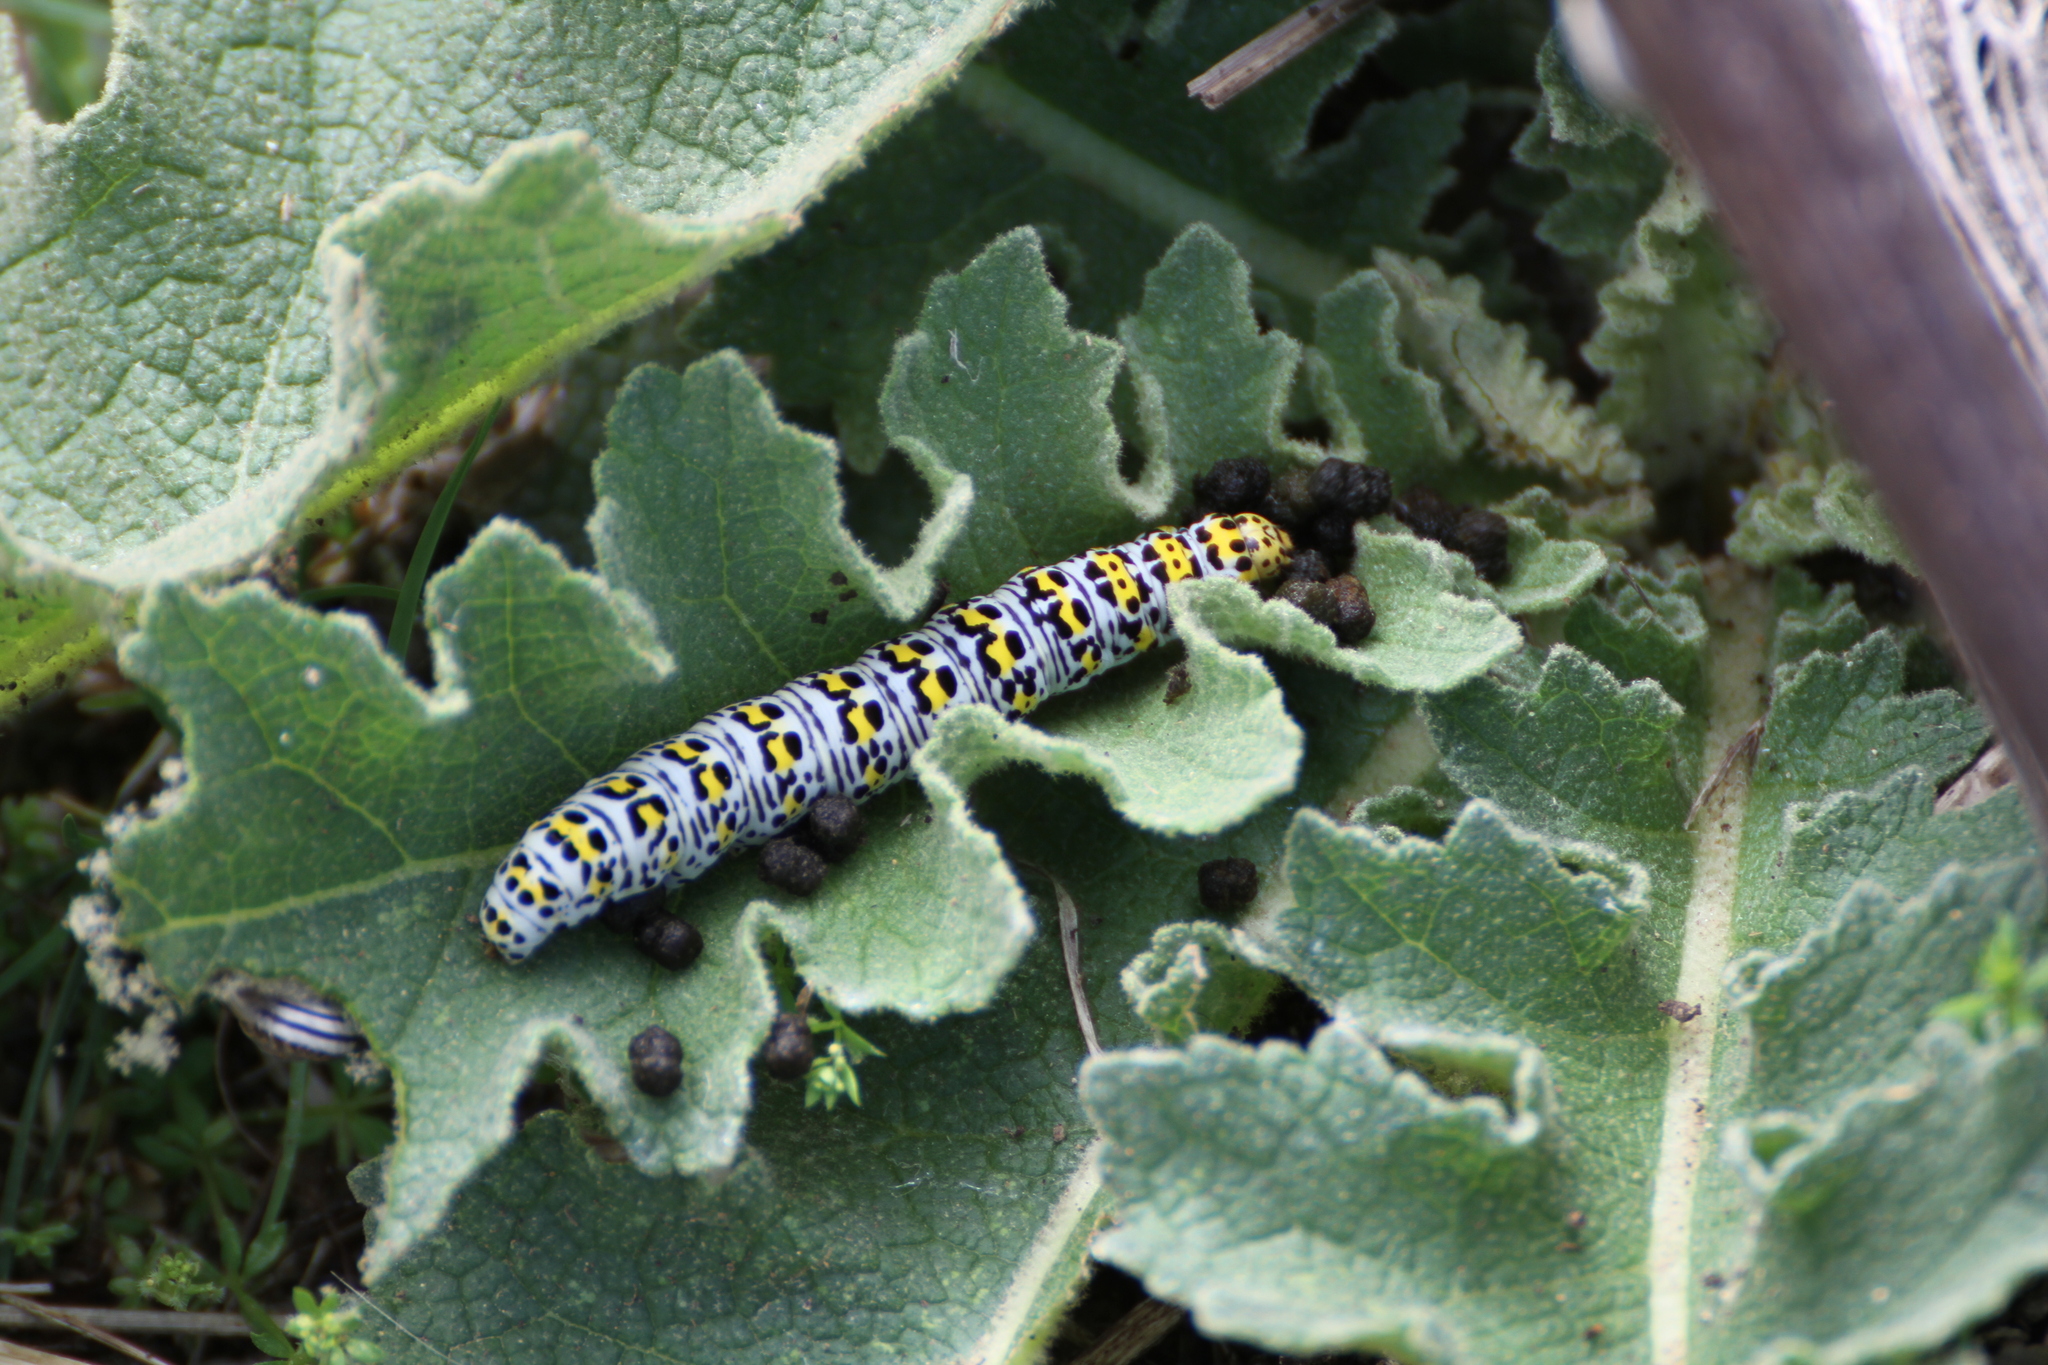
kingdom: Animalia
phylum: Arthropoda
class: Insecta
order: Lepidoptera
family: Noctuidae
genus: Cucullia
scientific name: Cucullia verbasci
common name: Mullein
